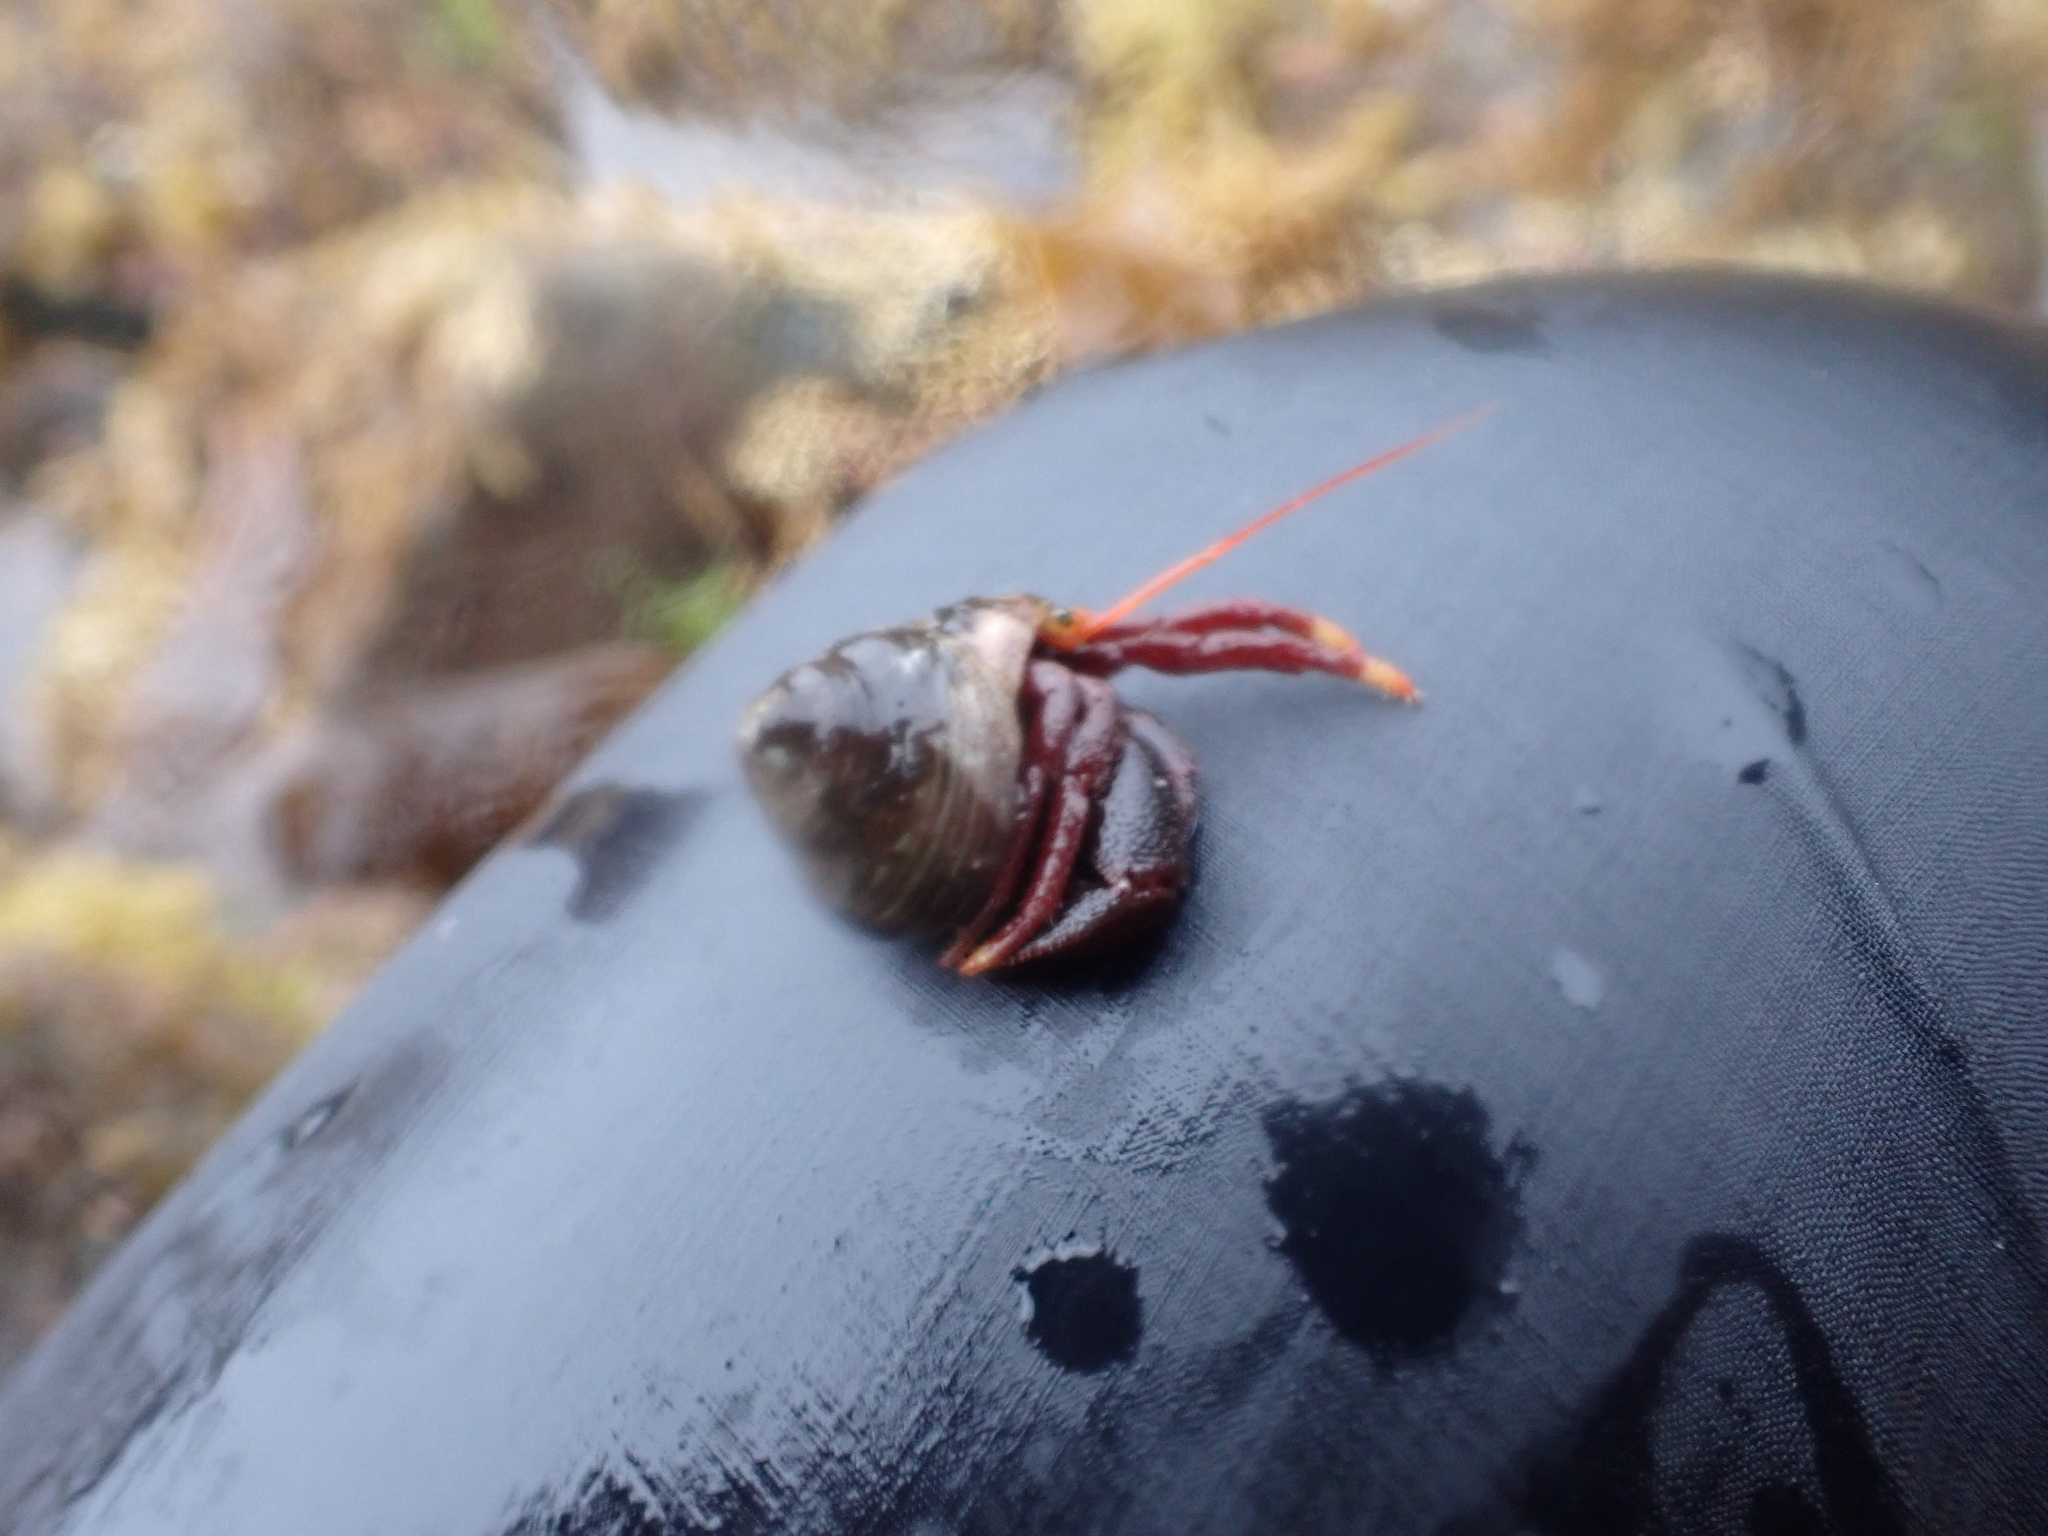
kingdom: Animalia
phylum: Arthropoda
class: Malacostraca
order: Decapoda
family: Paguridae
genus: Pagurus
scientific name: Pagurus hemphilli
